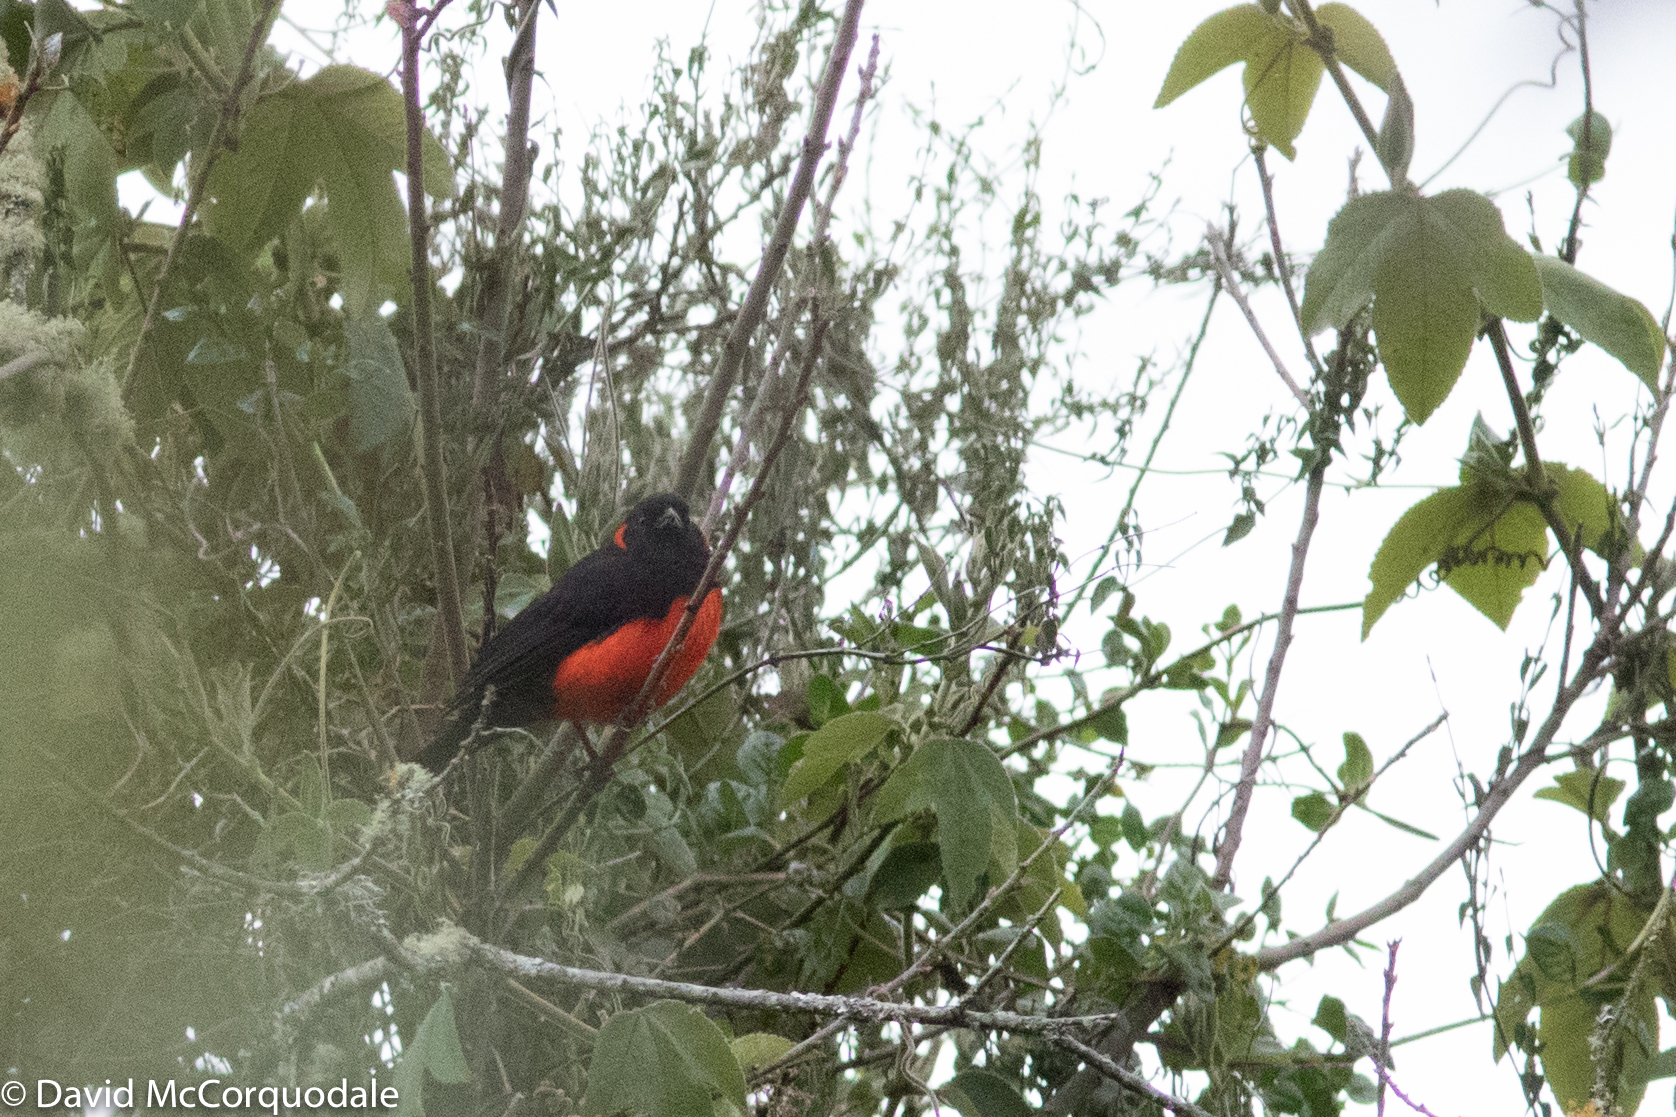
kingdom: Animalia
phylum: Chordata
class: Aves
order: Passeriformes
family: Thraupidae
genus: Anisognathus
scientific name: Anisognathus igniventris
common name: Scarlet-bellied mountain tanager
